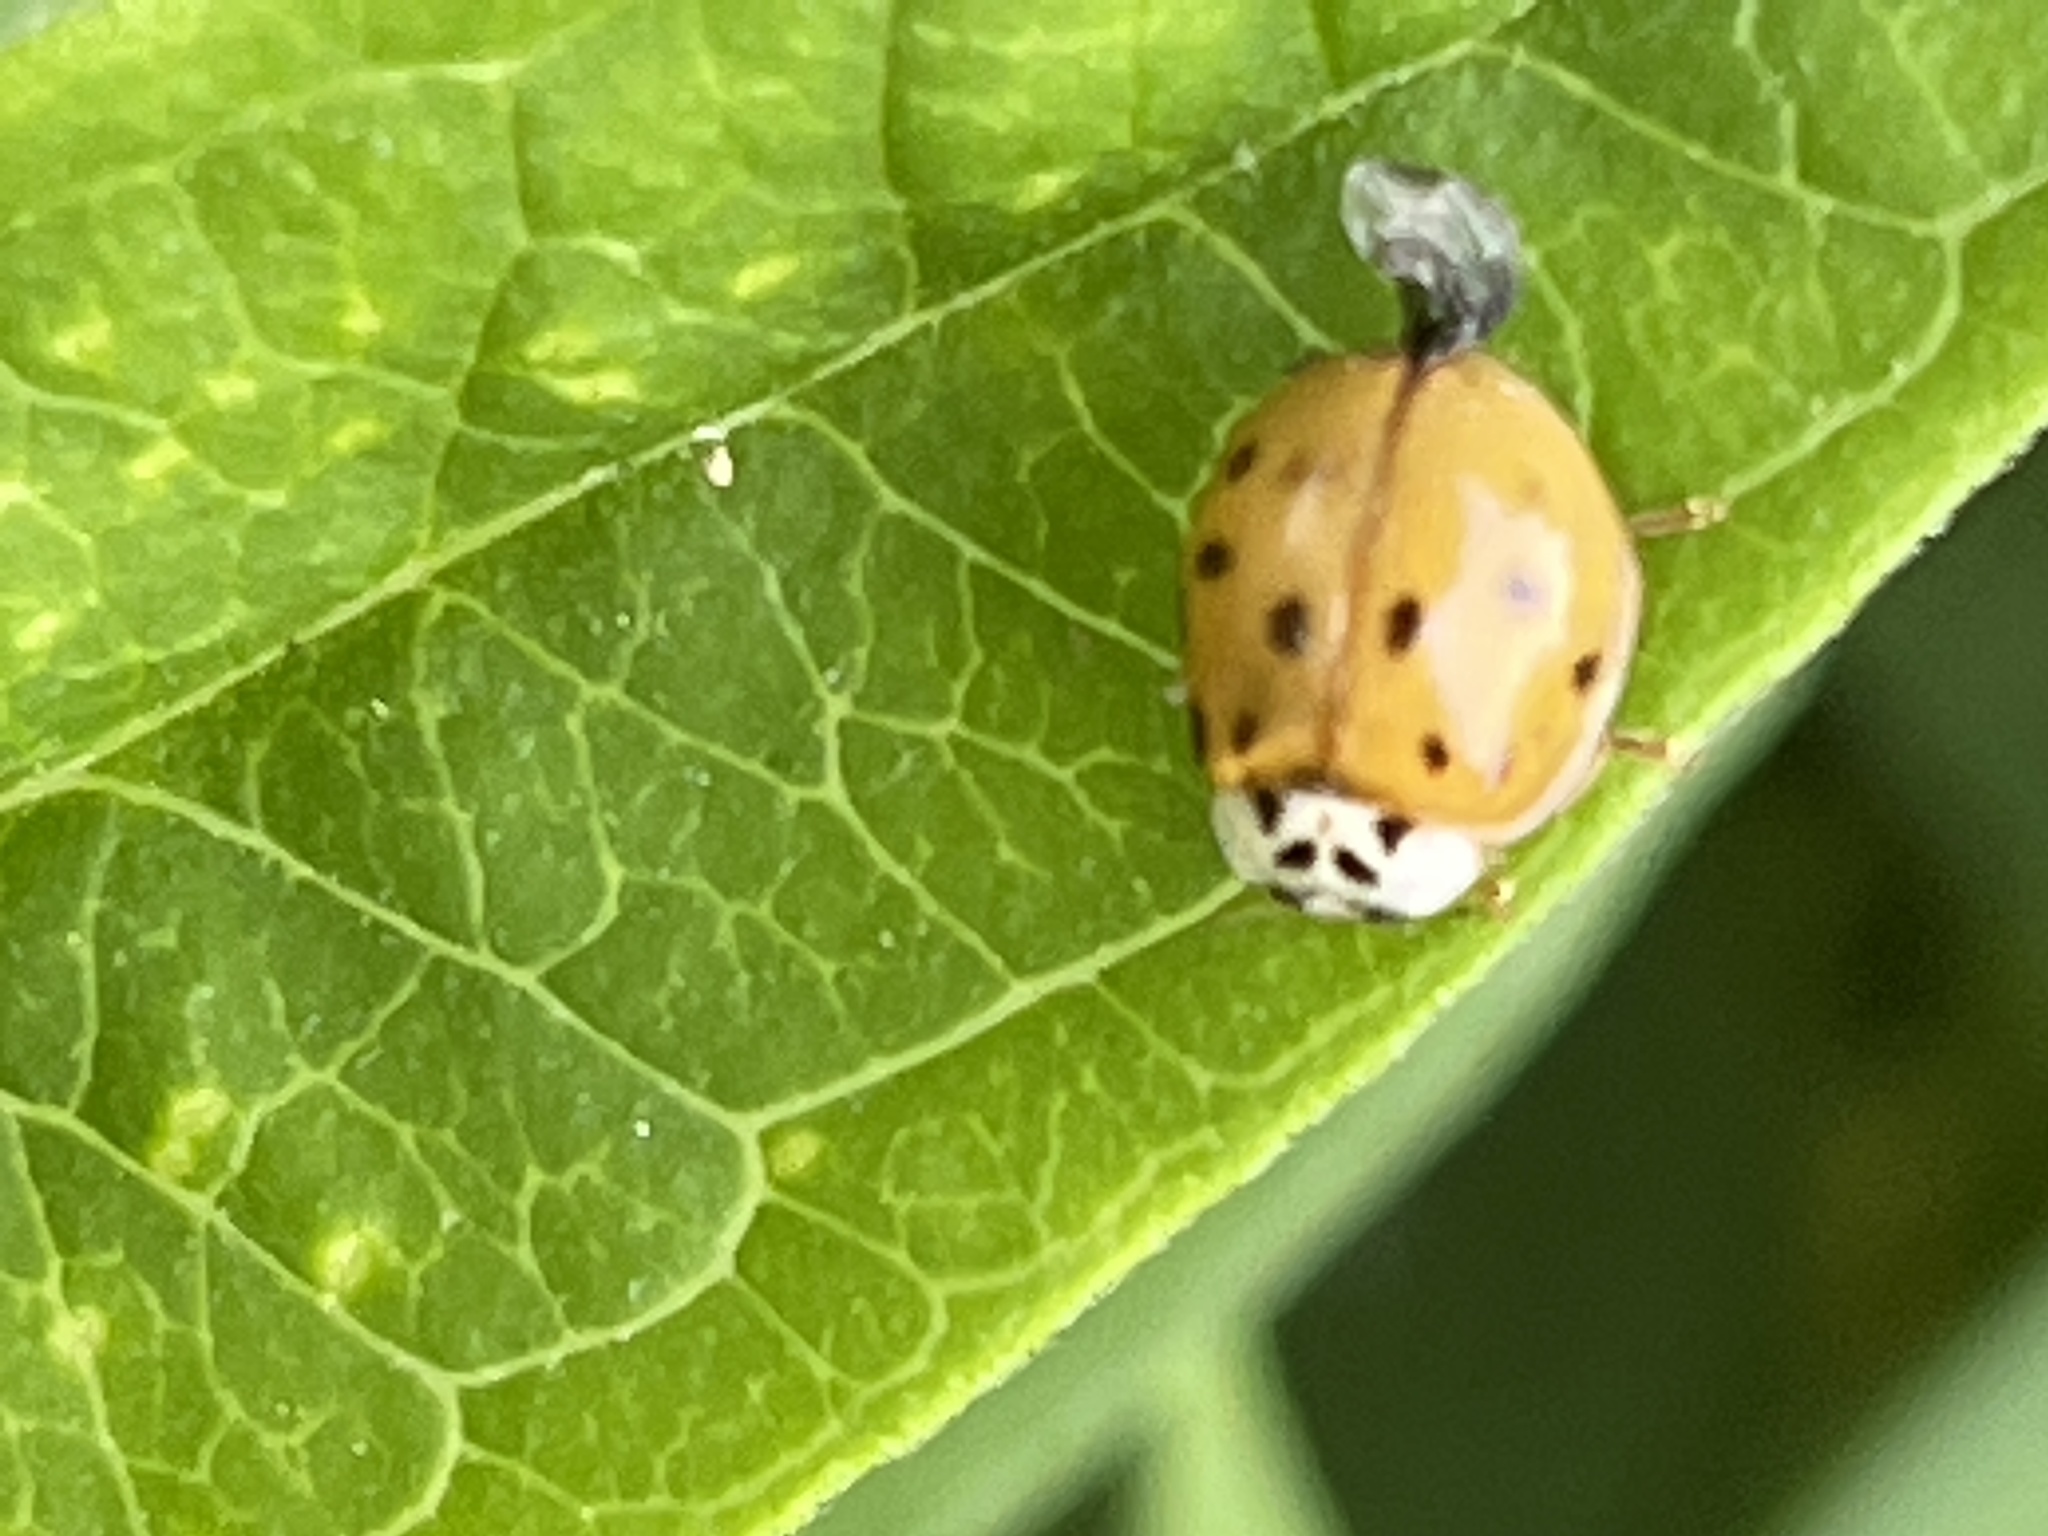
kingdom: Animalia
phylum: Arthropoda
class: Insecta
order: Coleoptera
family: Coccinellidae
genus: Harmonia
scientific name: Harmonia axyridis
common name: Harlequin ladybird
